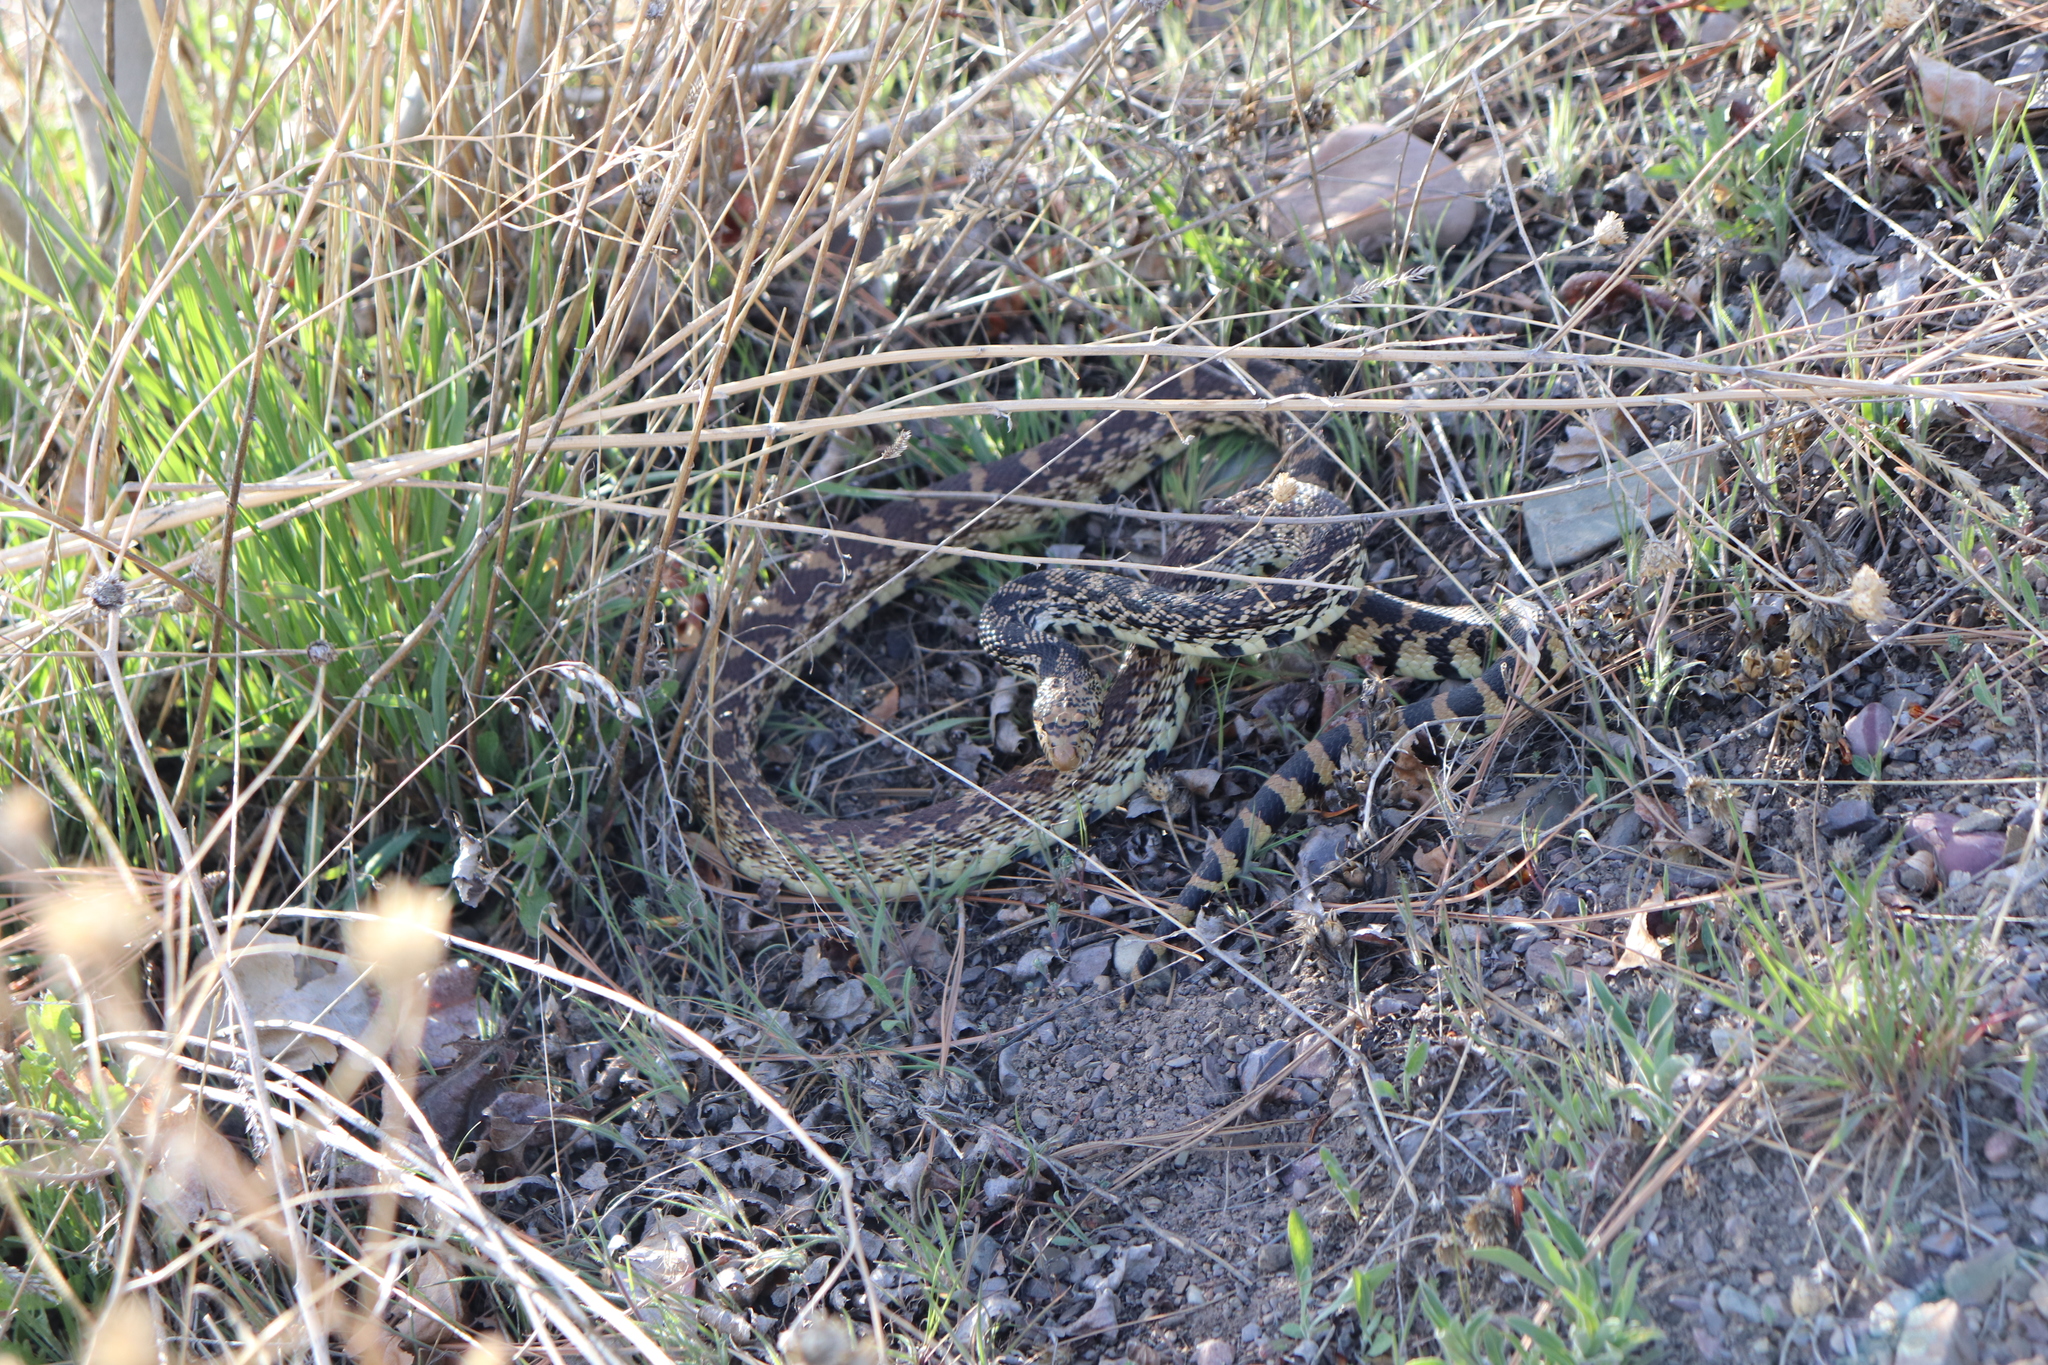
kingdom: Animalia
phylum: Chordata
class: Squamata
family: Colubridae
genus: Pituophis
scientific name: Pituophis catenifer
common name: Gopher snake
